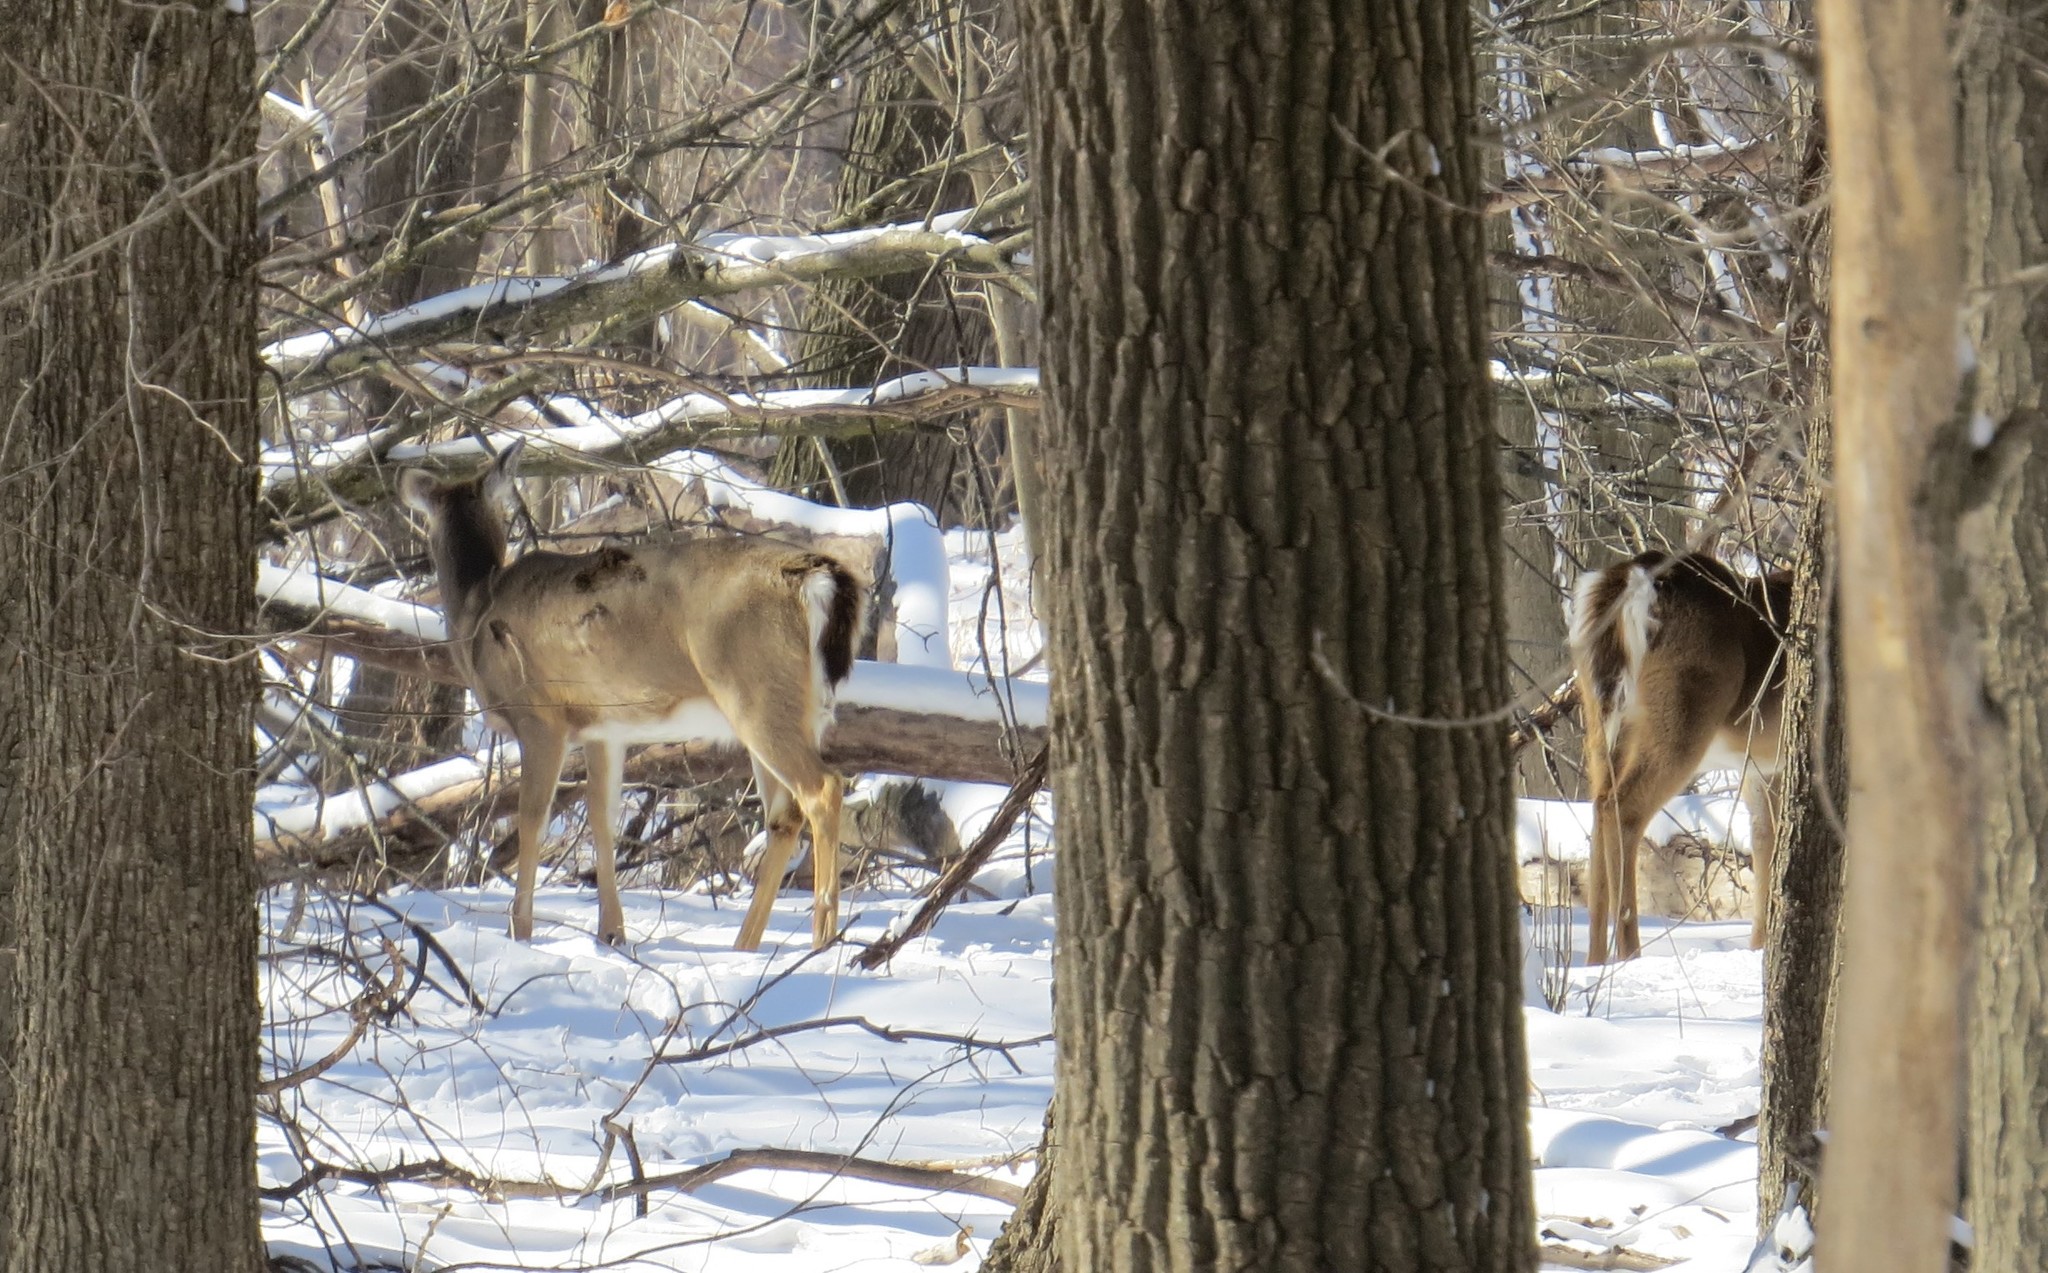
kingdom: Animalia
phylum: Chordata
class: Mammalia
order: Artiodactyla
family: Cervidae
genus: Odocoileus
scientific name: Odocoileus virginianus
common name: White-tailed deer
